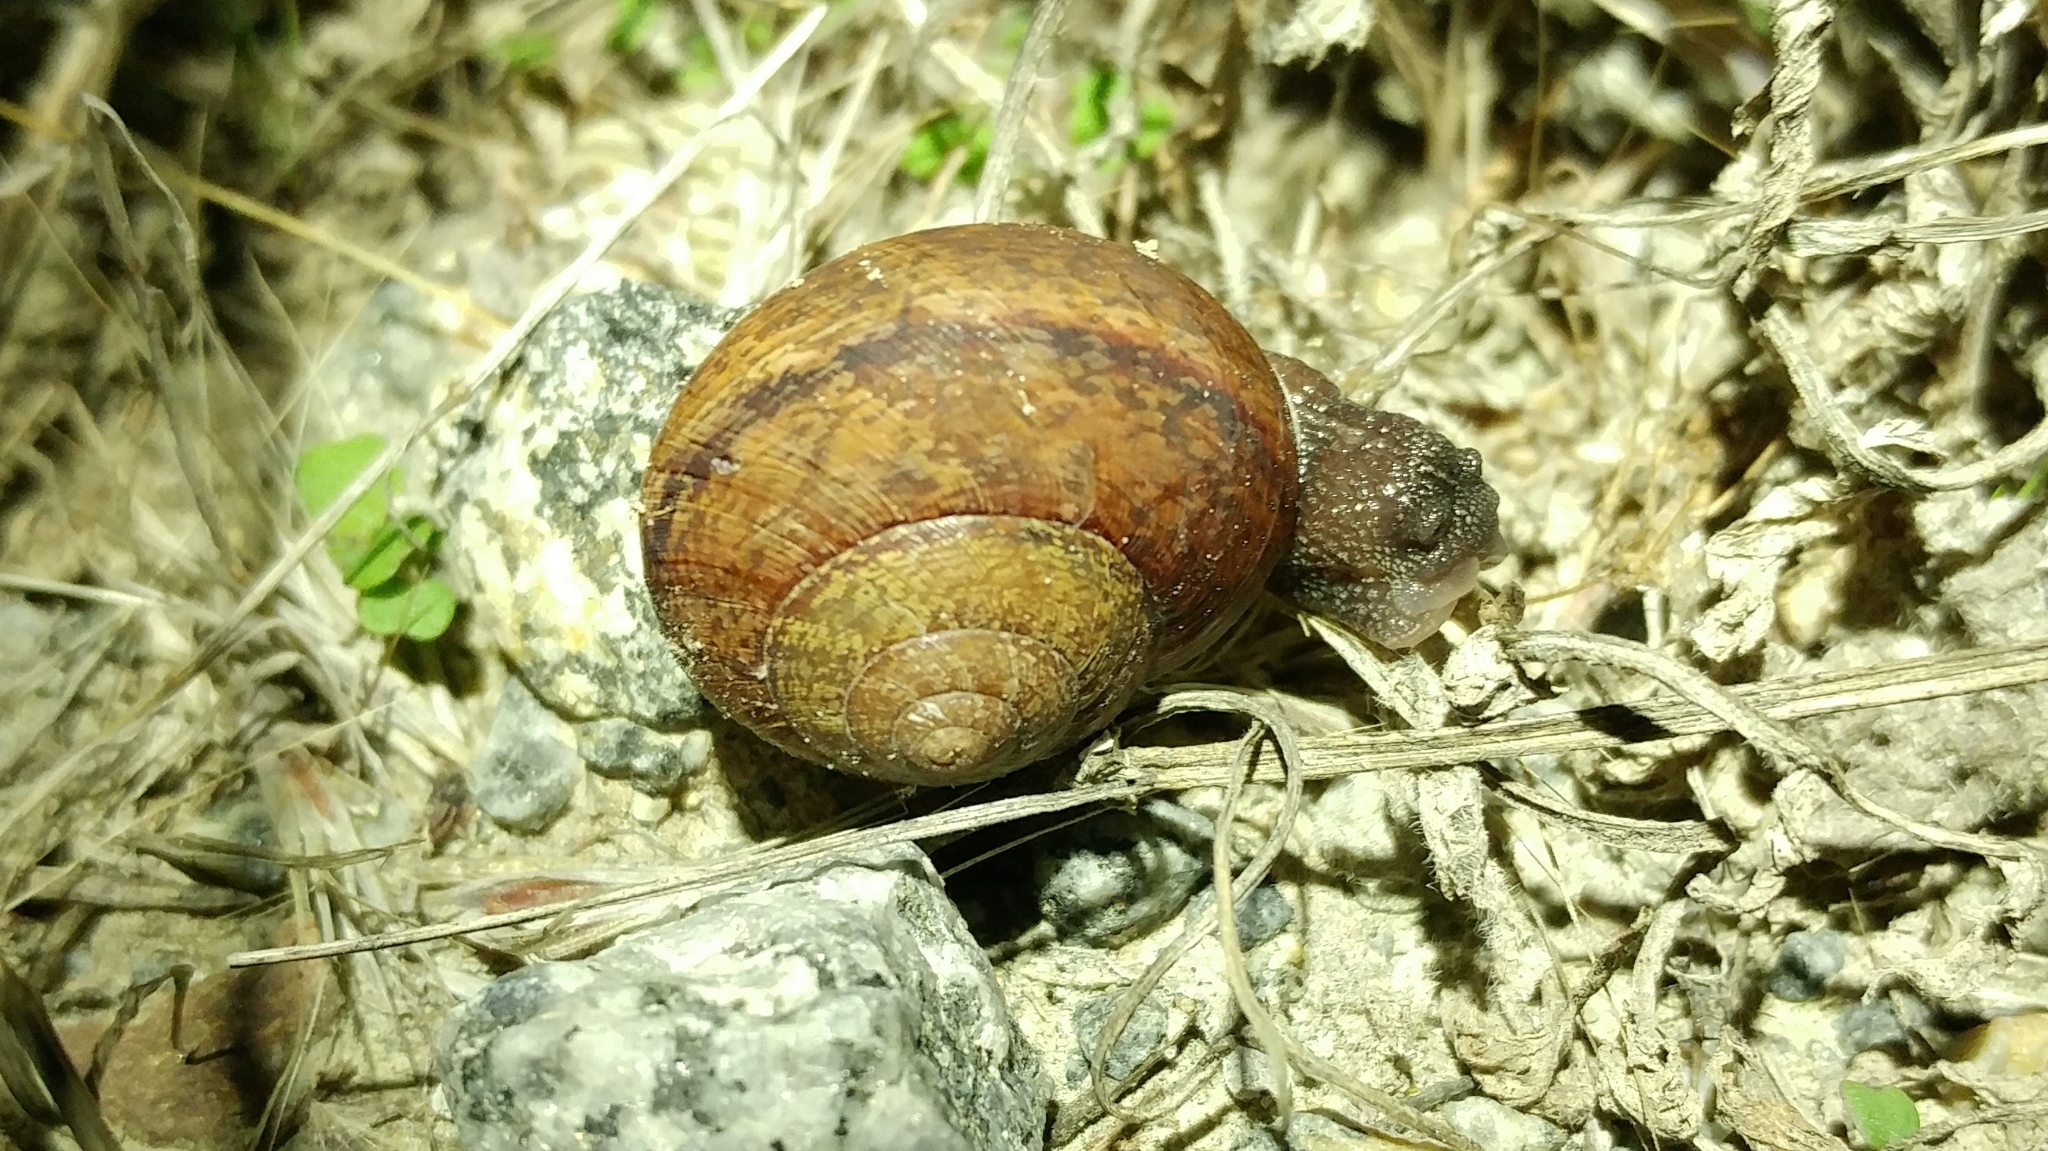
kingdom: Animalia
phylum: Mollusca
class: Gastropoda
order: Stylommatophora
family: Xanthonychidae
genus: Xerarionta
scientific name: Xerarionta stearnsiana
